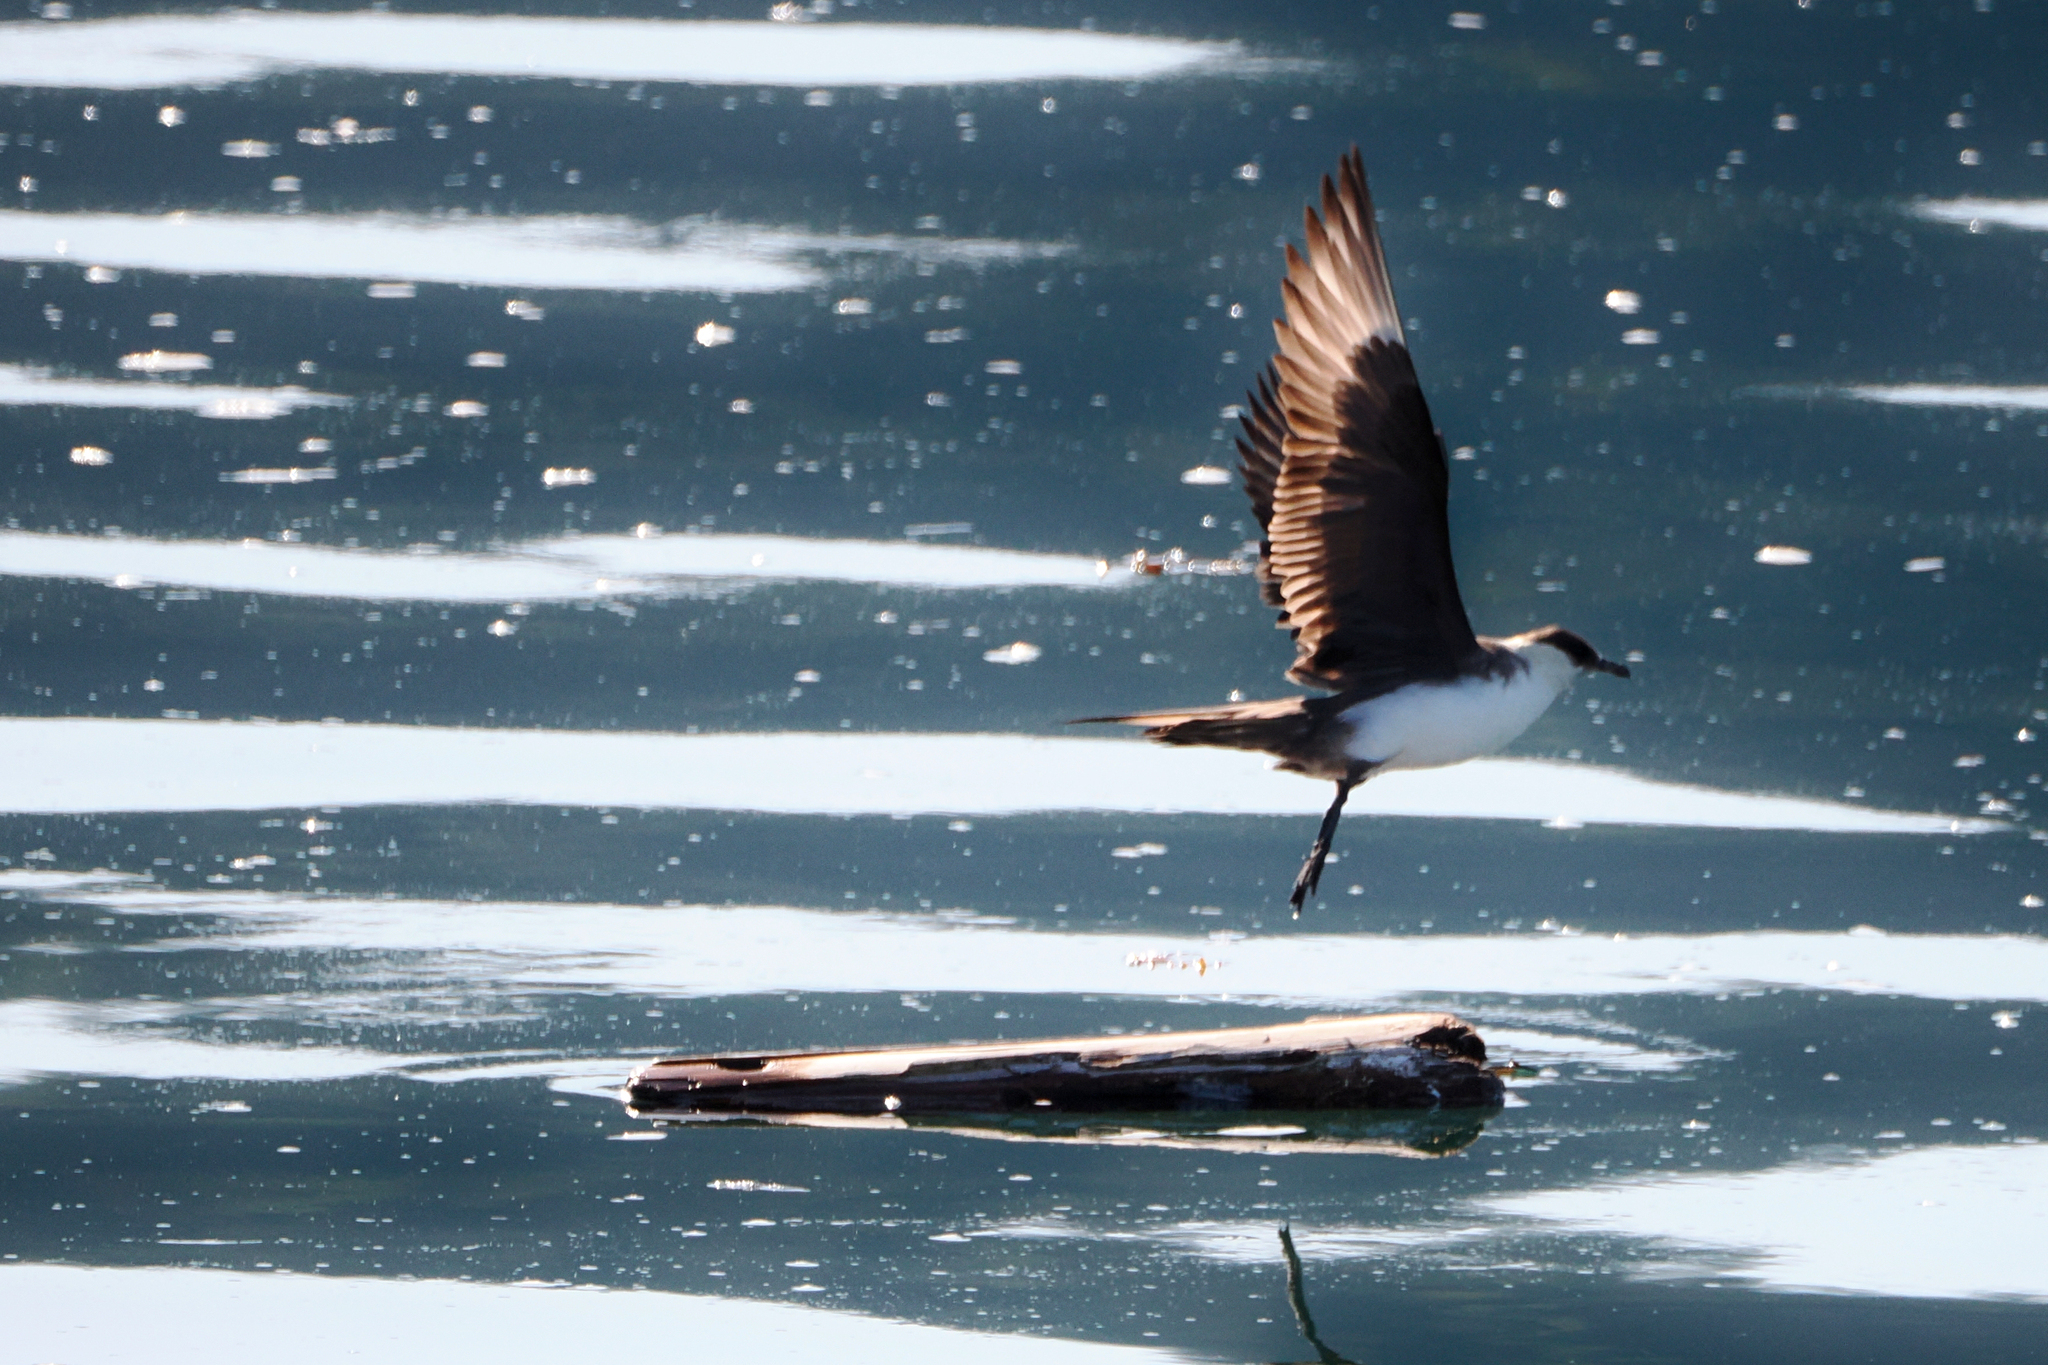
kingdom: Animalia
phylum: Chordata
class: Aves
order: Charadriiformes
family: Stercorariidae
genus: Stercorarius
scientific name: Stercorarius parasiticus
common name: Parasitic jaeger
